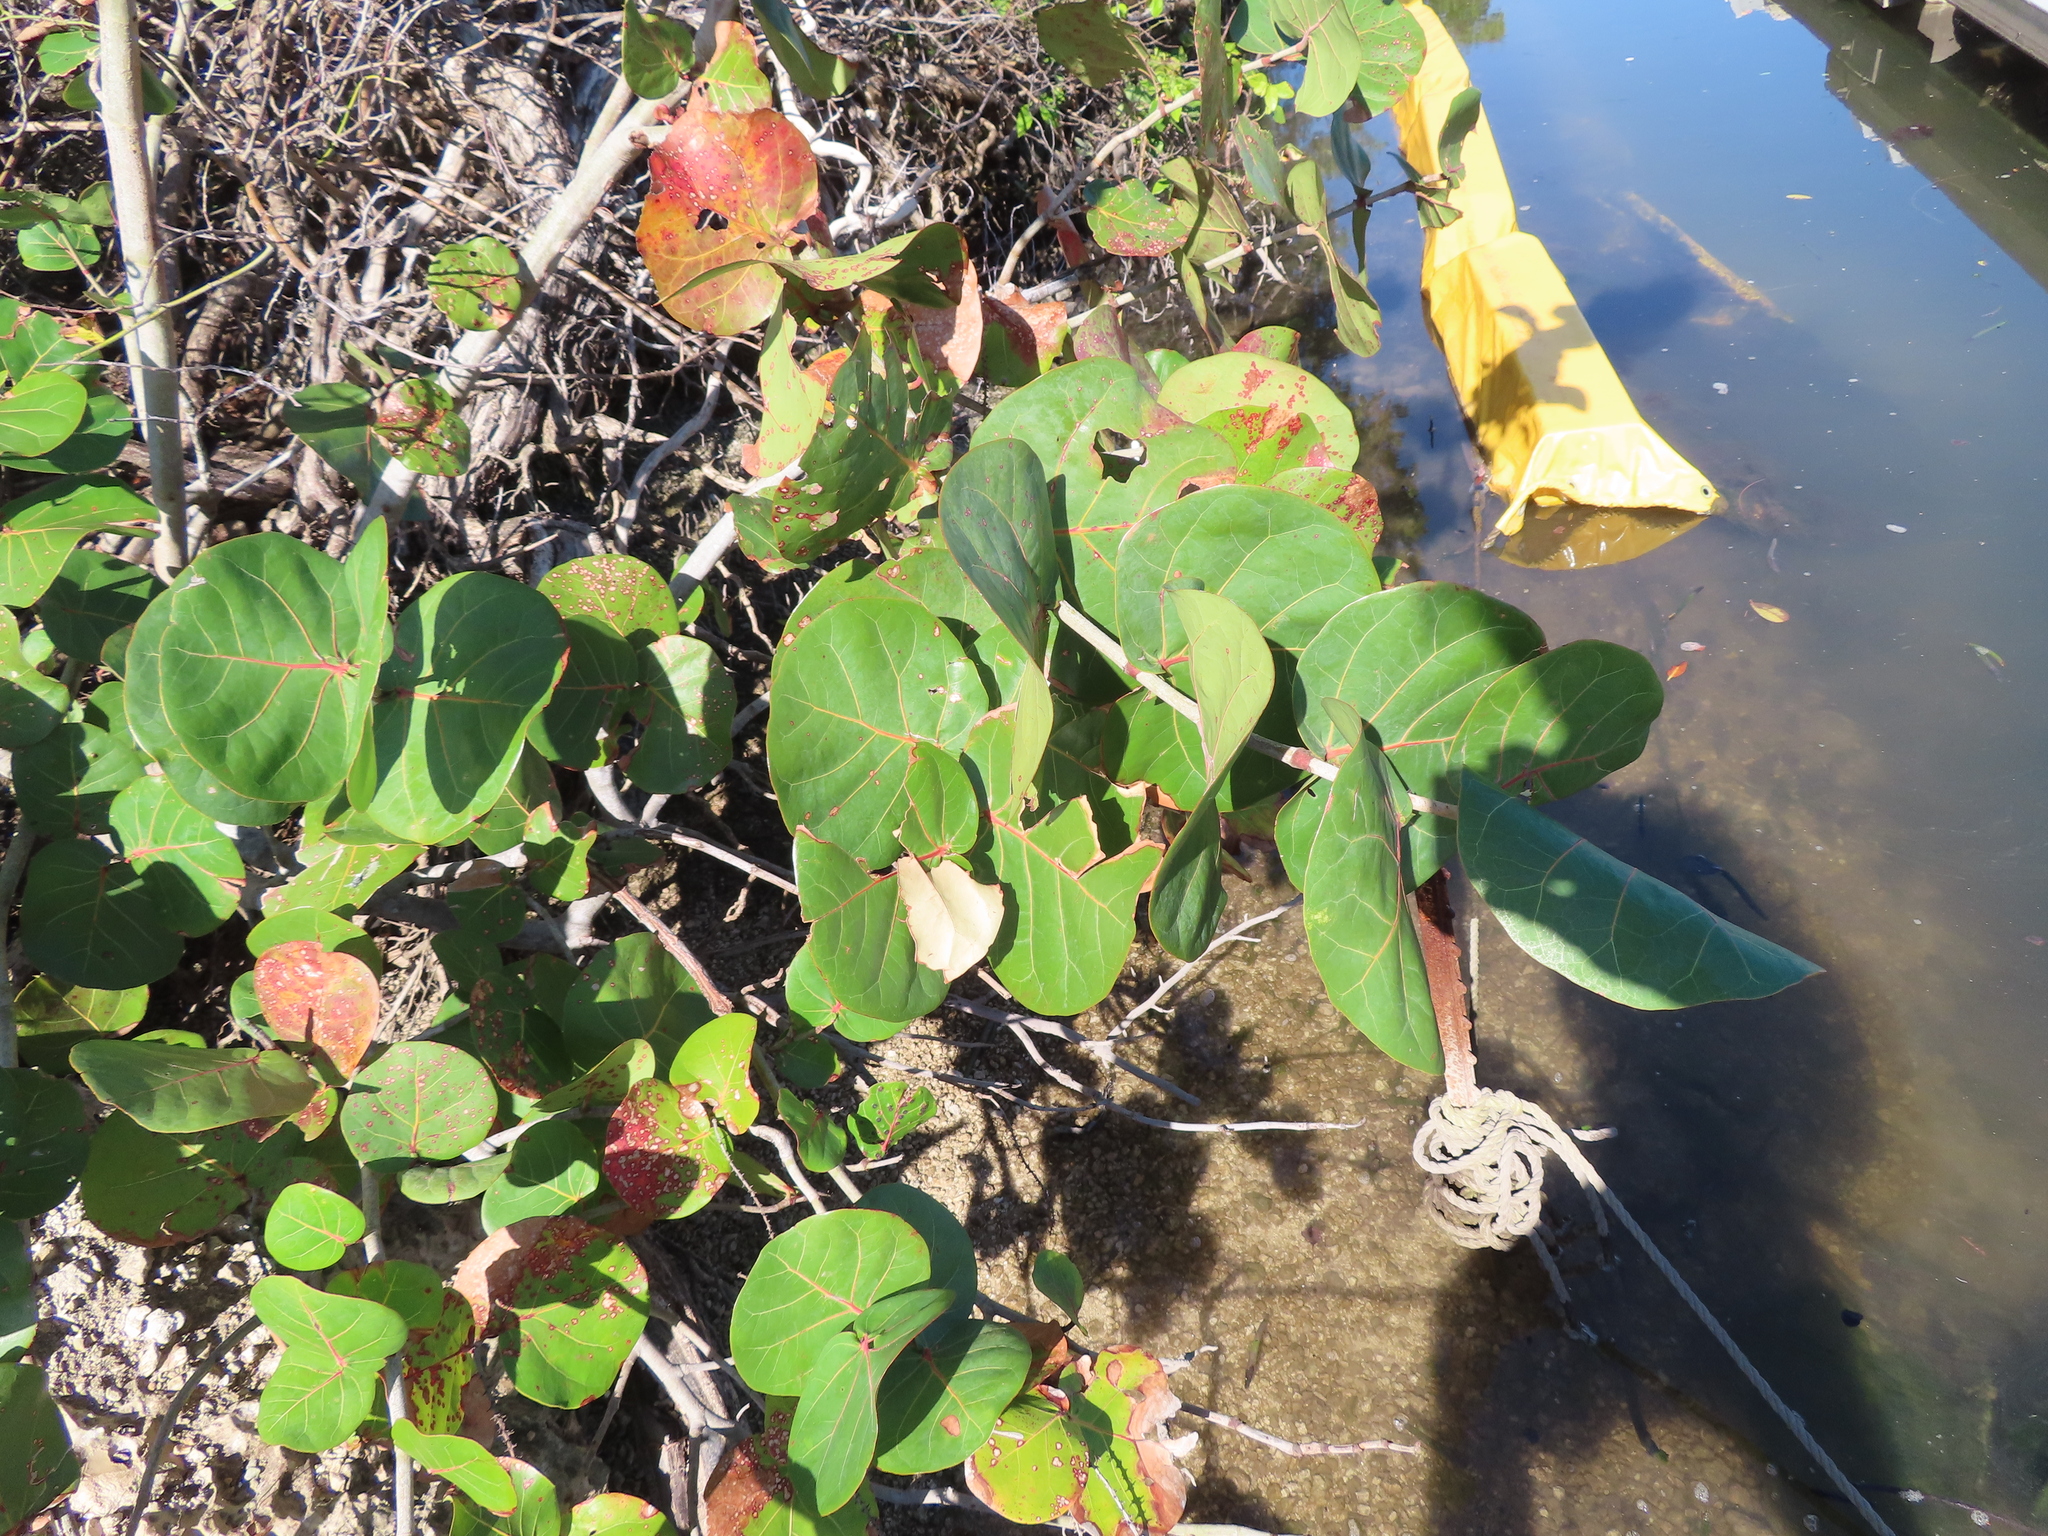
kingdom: Plantae
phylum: Tracheophyta
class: Magnoliopsida
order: Caryophyllales
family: Polygonaceae
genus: Coccoloba
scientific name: Coccoloba uvifera
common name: Seagrape
